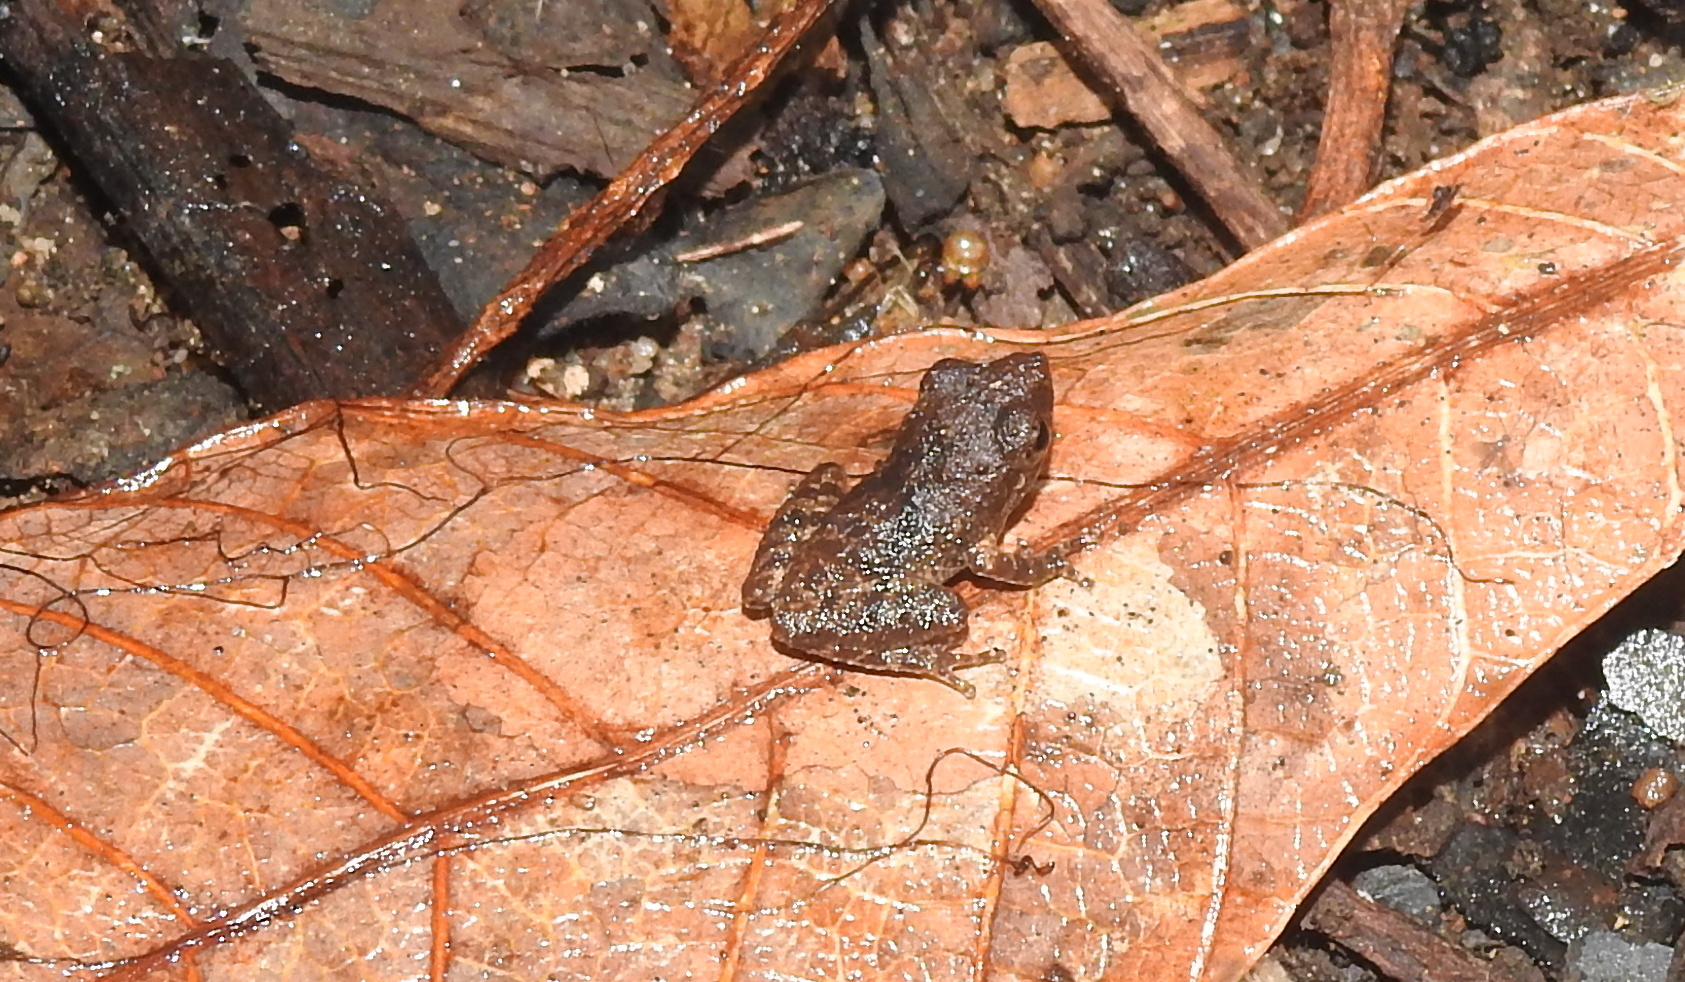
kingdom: Animalia
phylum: Chordata
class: Amphibia
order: Anura
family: Rhacophoridae
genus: Pseudophilautus
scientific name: Pseudophilautus wynaadensis
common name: Dark-eared bush frog
